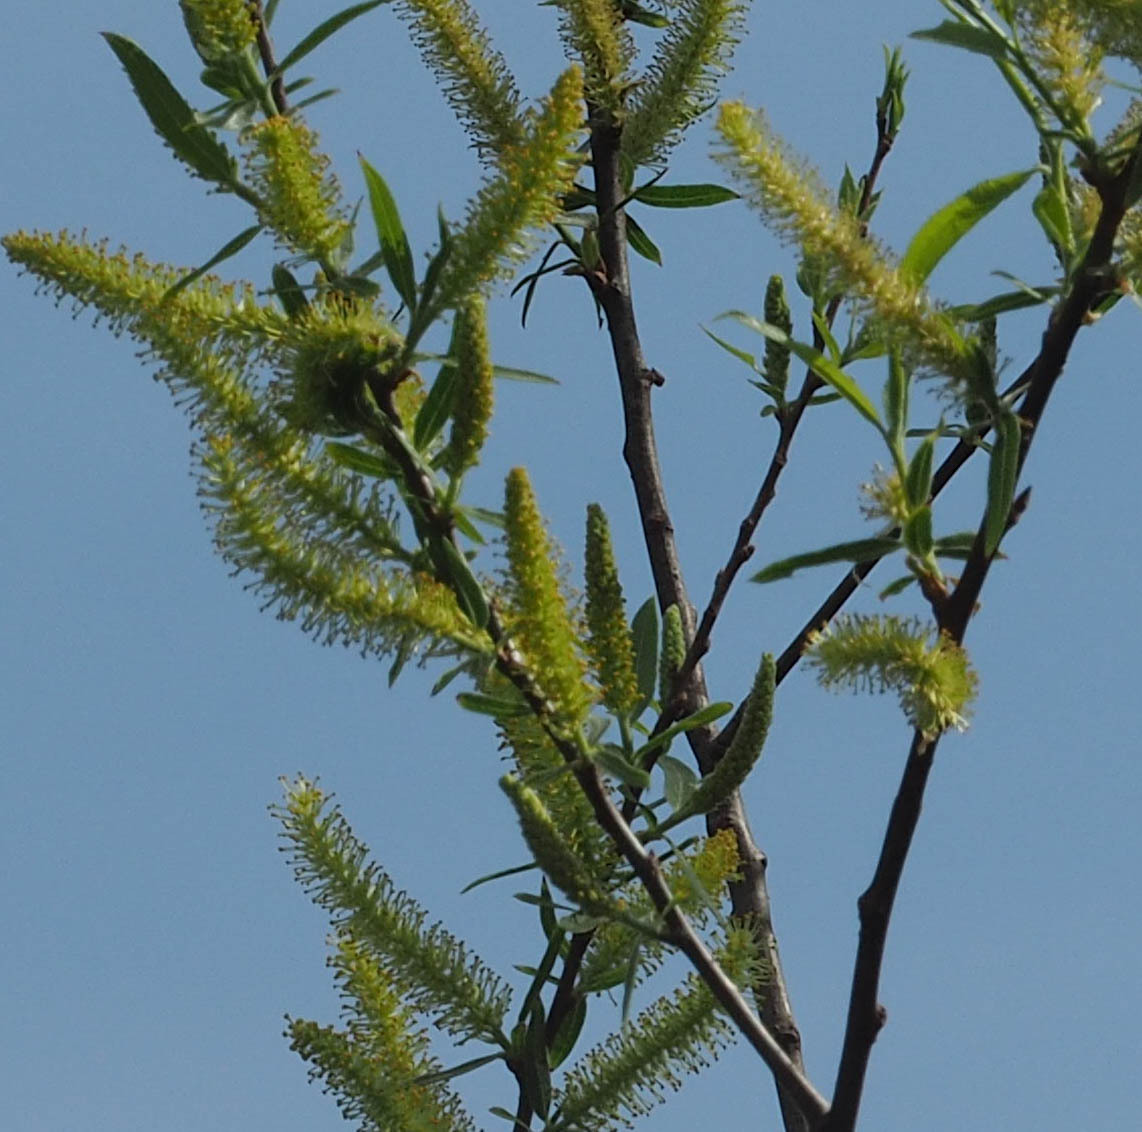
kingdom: Plantae
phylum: Tracheophyta
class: Magnoliopsida
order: Malpighiales
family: Salicaceae
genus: Salix
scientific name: Salix nigra
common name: Black willow
